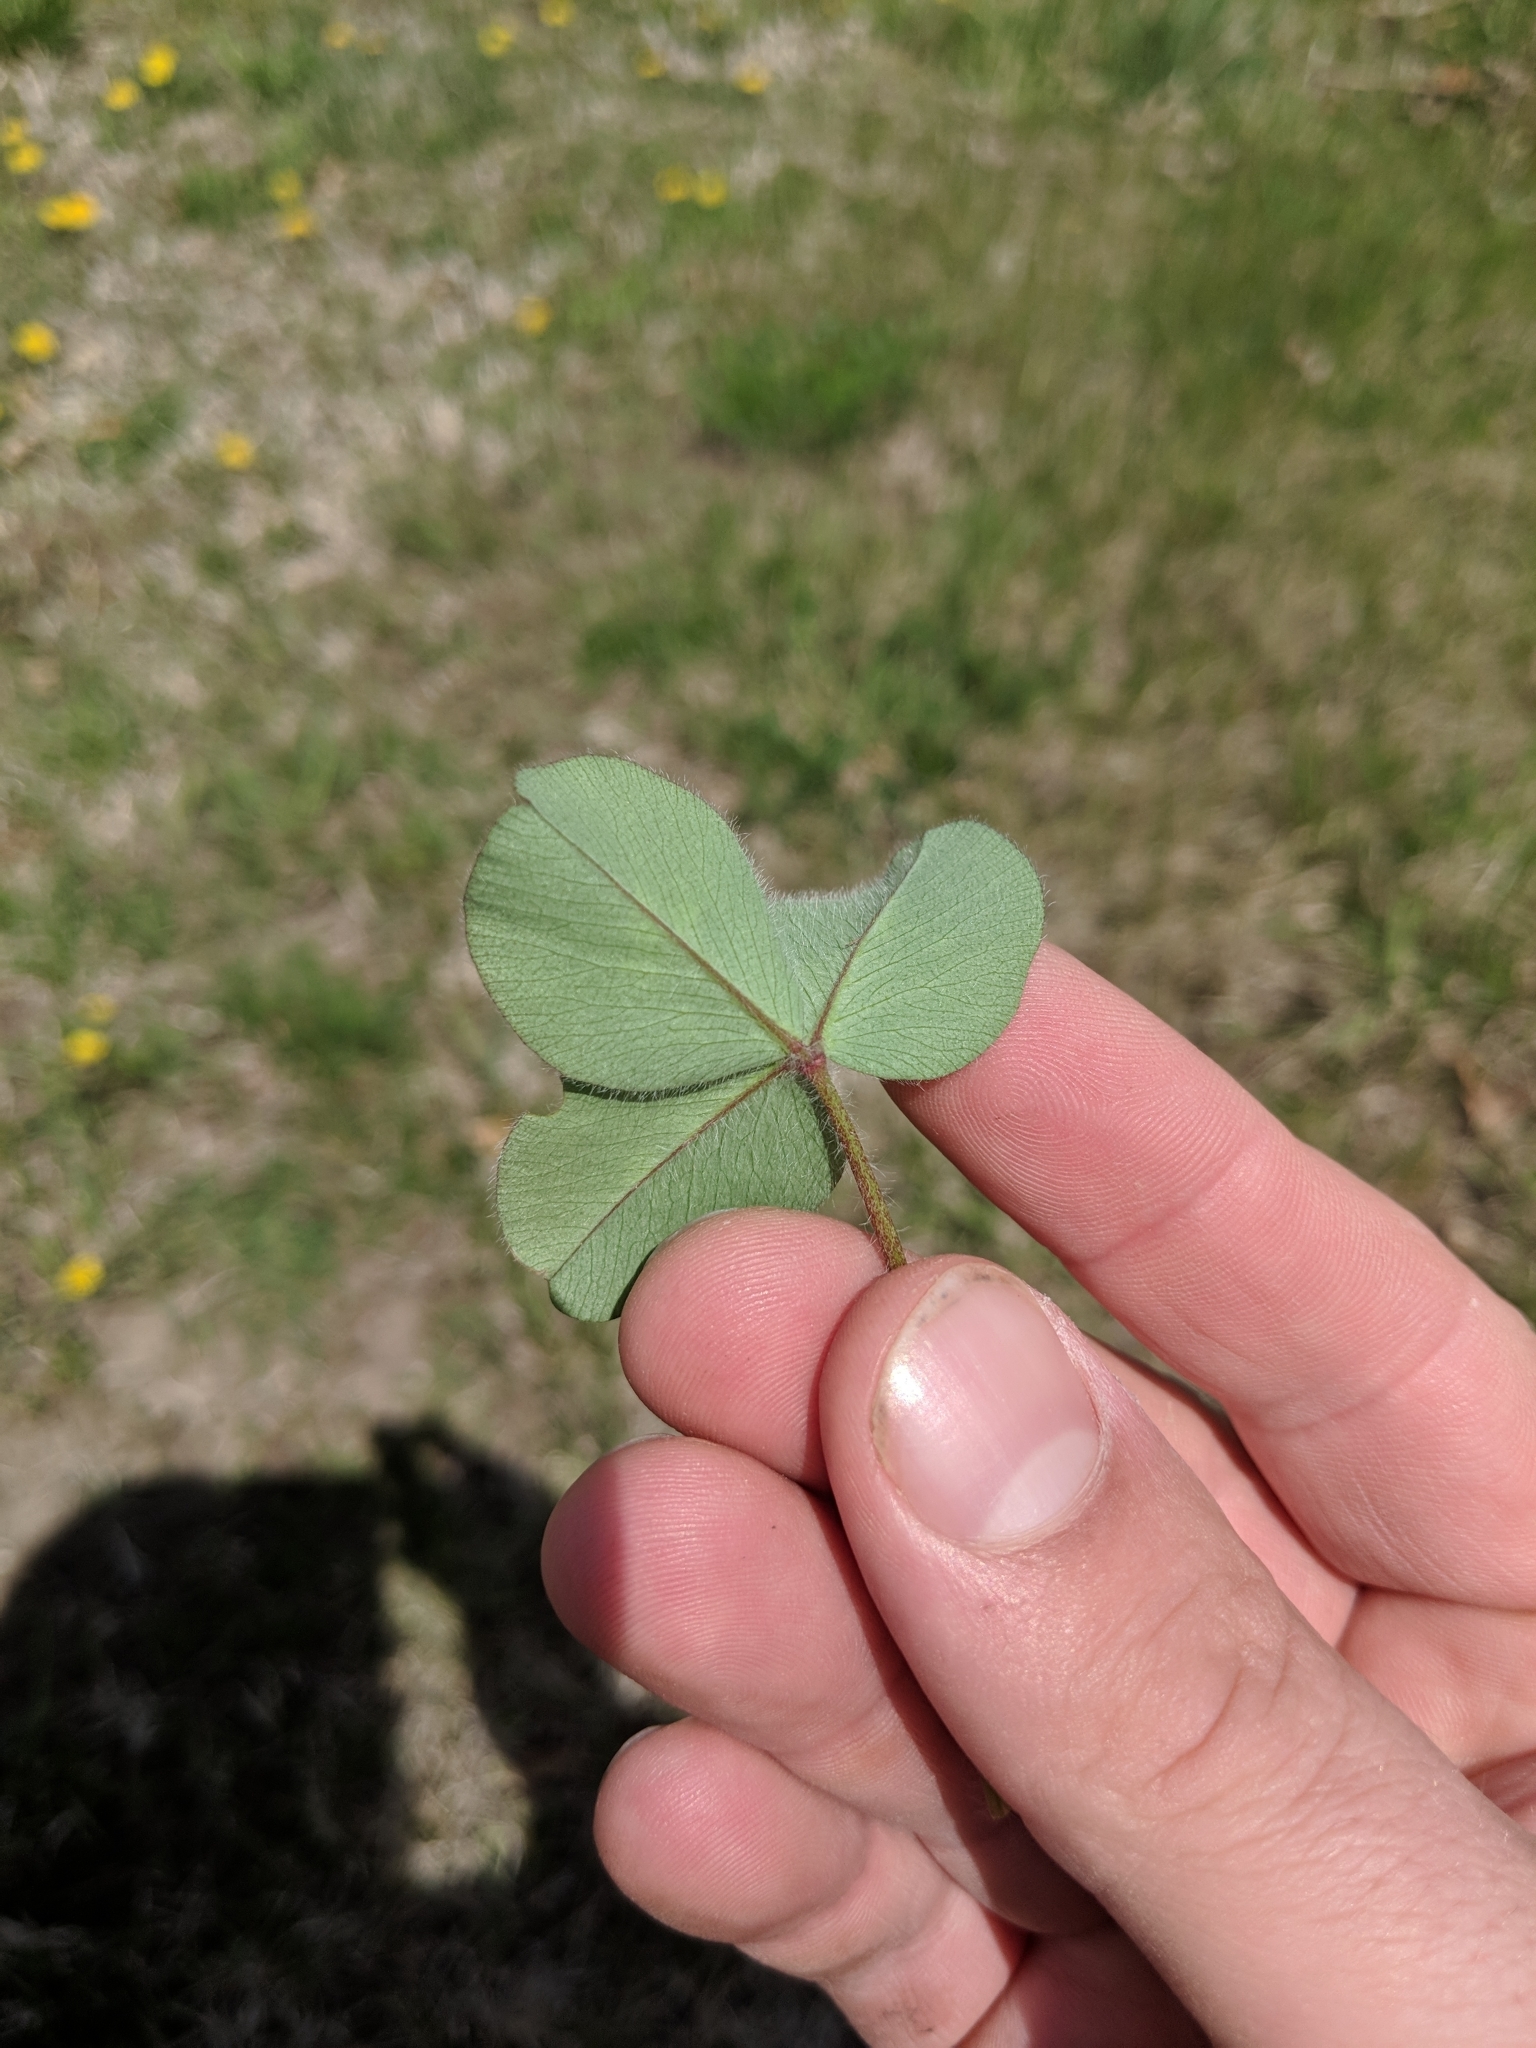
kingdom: Plantae
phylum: Tracheophyta
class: Magnoliopsida
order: Fabales
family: Fabaceae
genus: Trifolium
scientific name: Trifolium pratense
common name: Red clover
